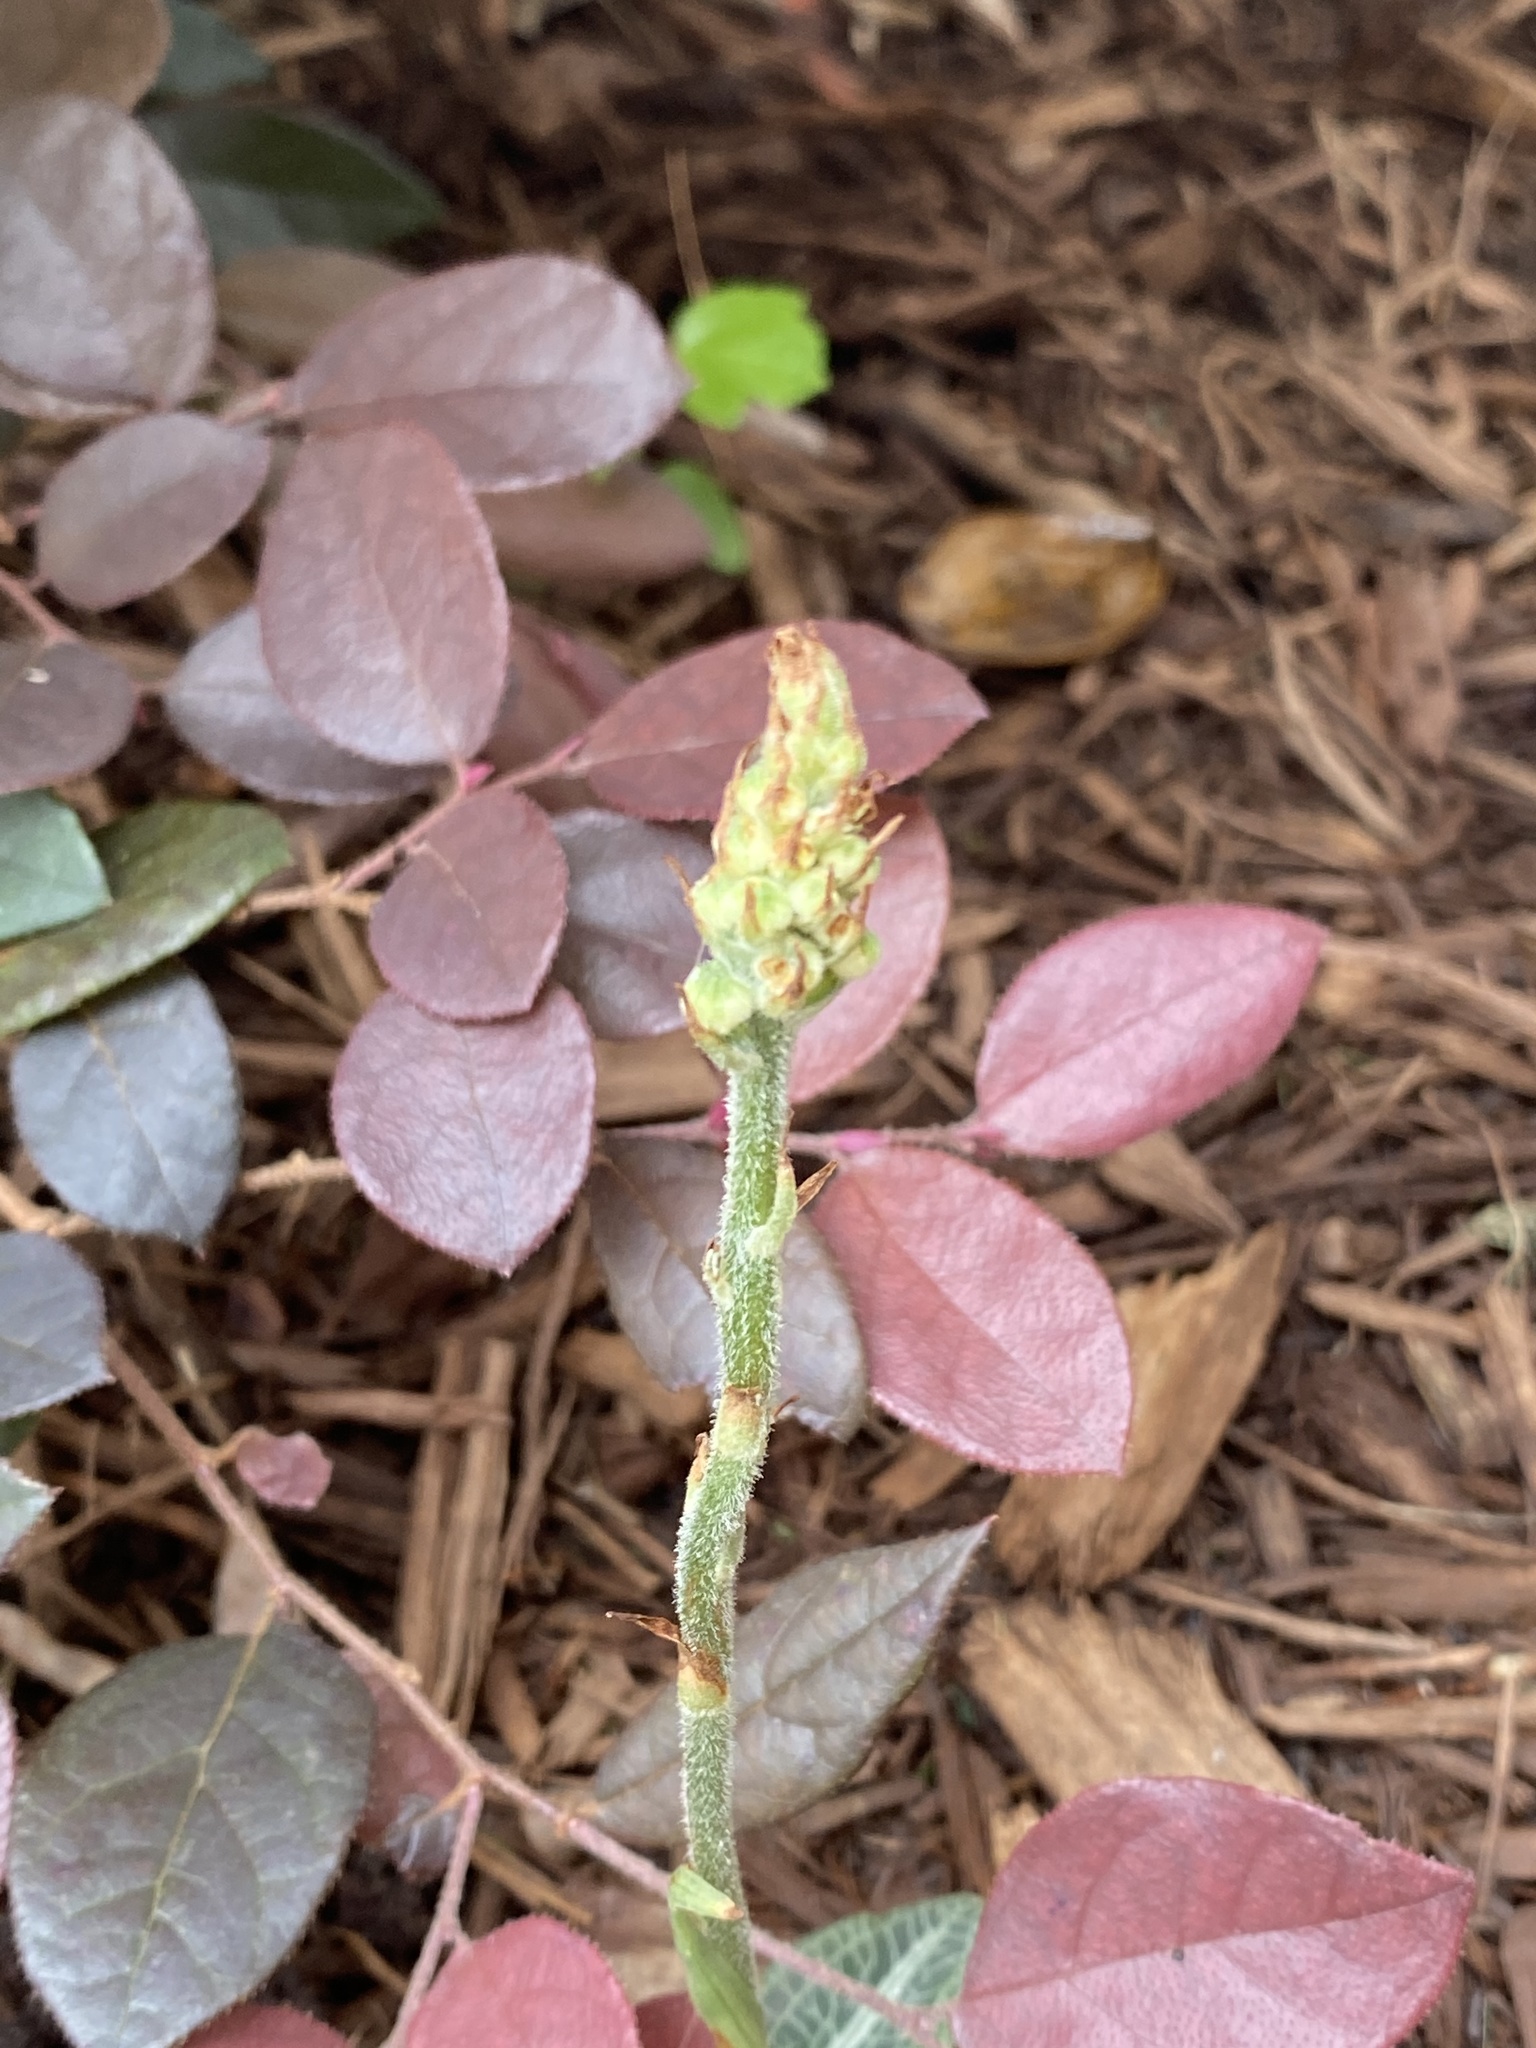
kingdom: Plantae
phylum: Tracheophyta
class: Liliopsida
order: Asparagales
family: Orchidaceae
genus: Goodyera
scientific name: Goodyera pubescens
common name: Downy rattlesnake-plantain
